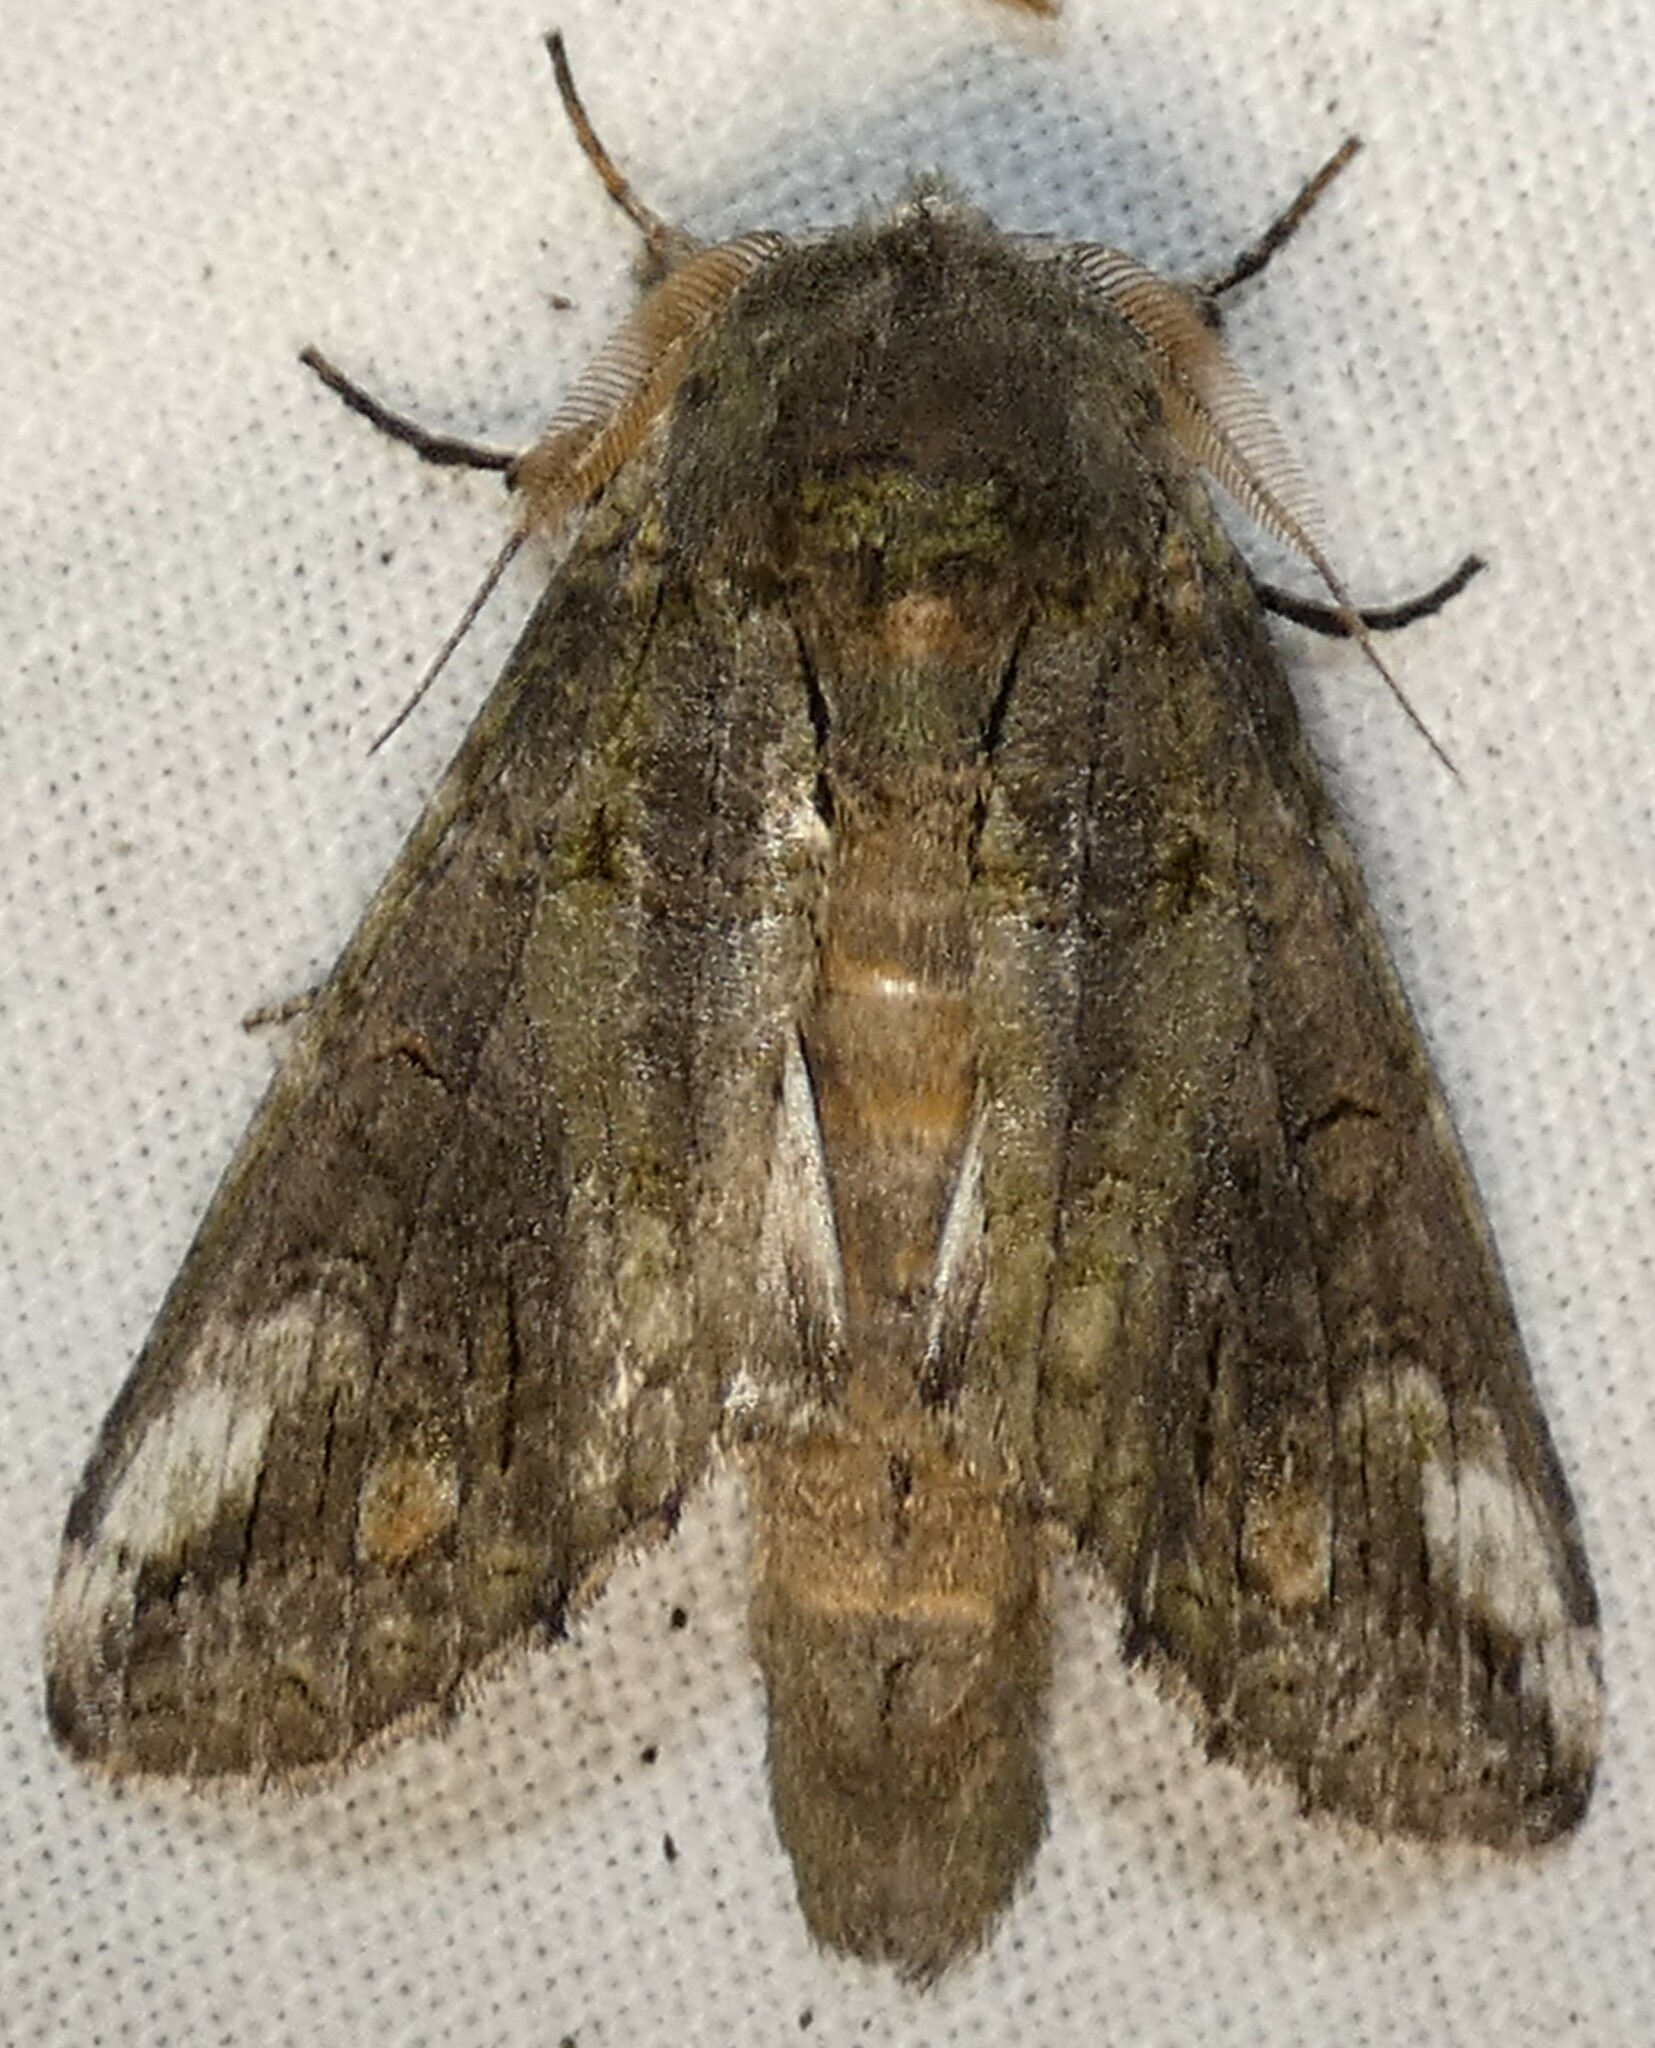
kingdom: Animalia
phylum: Arthropoda
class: Insecta
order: Lepidoptera
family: Notodontidae
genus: Heterocampa
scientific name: Heterocampa obliqua
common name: Oblique heterocampa
